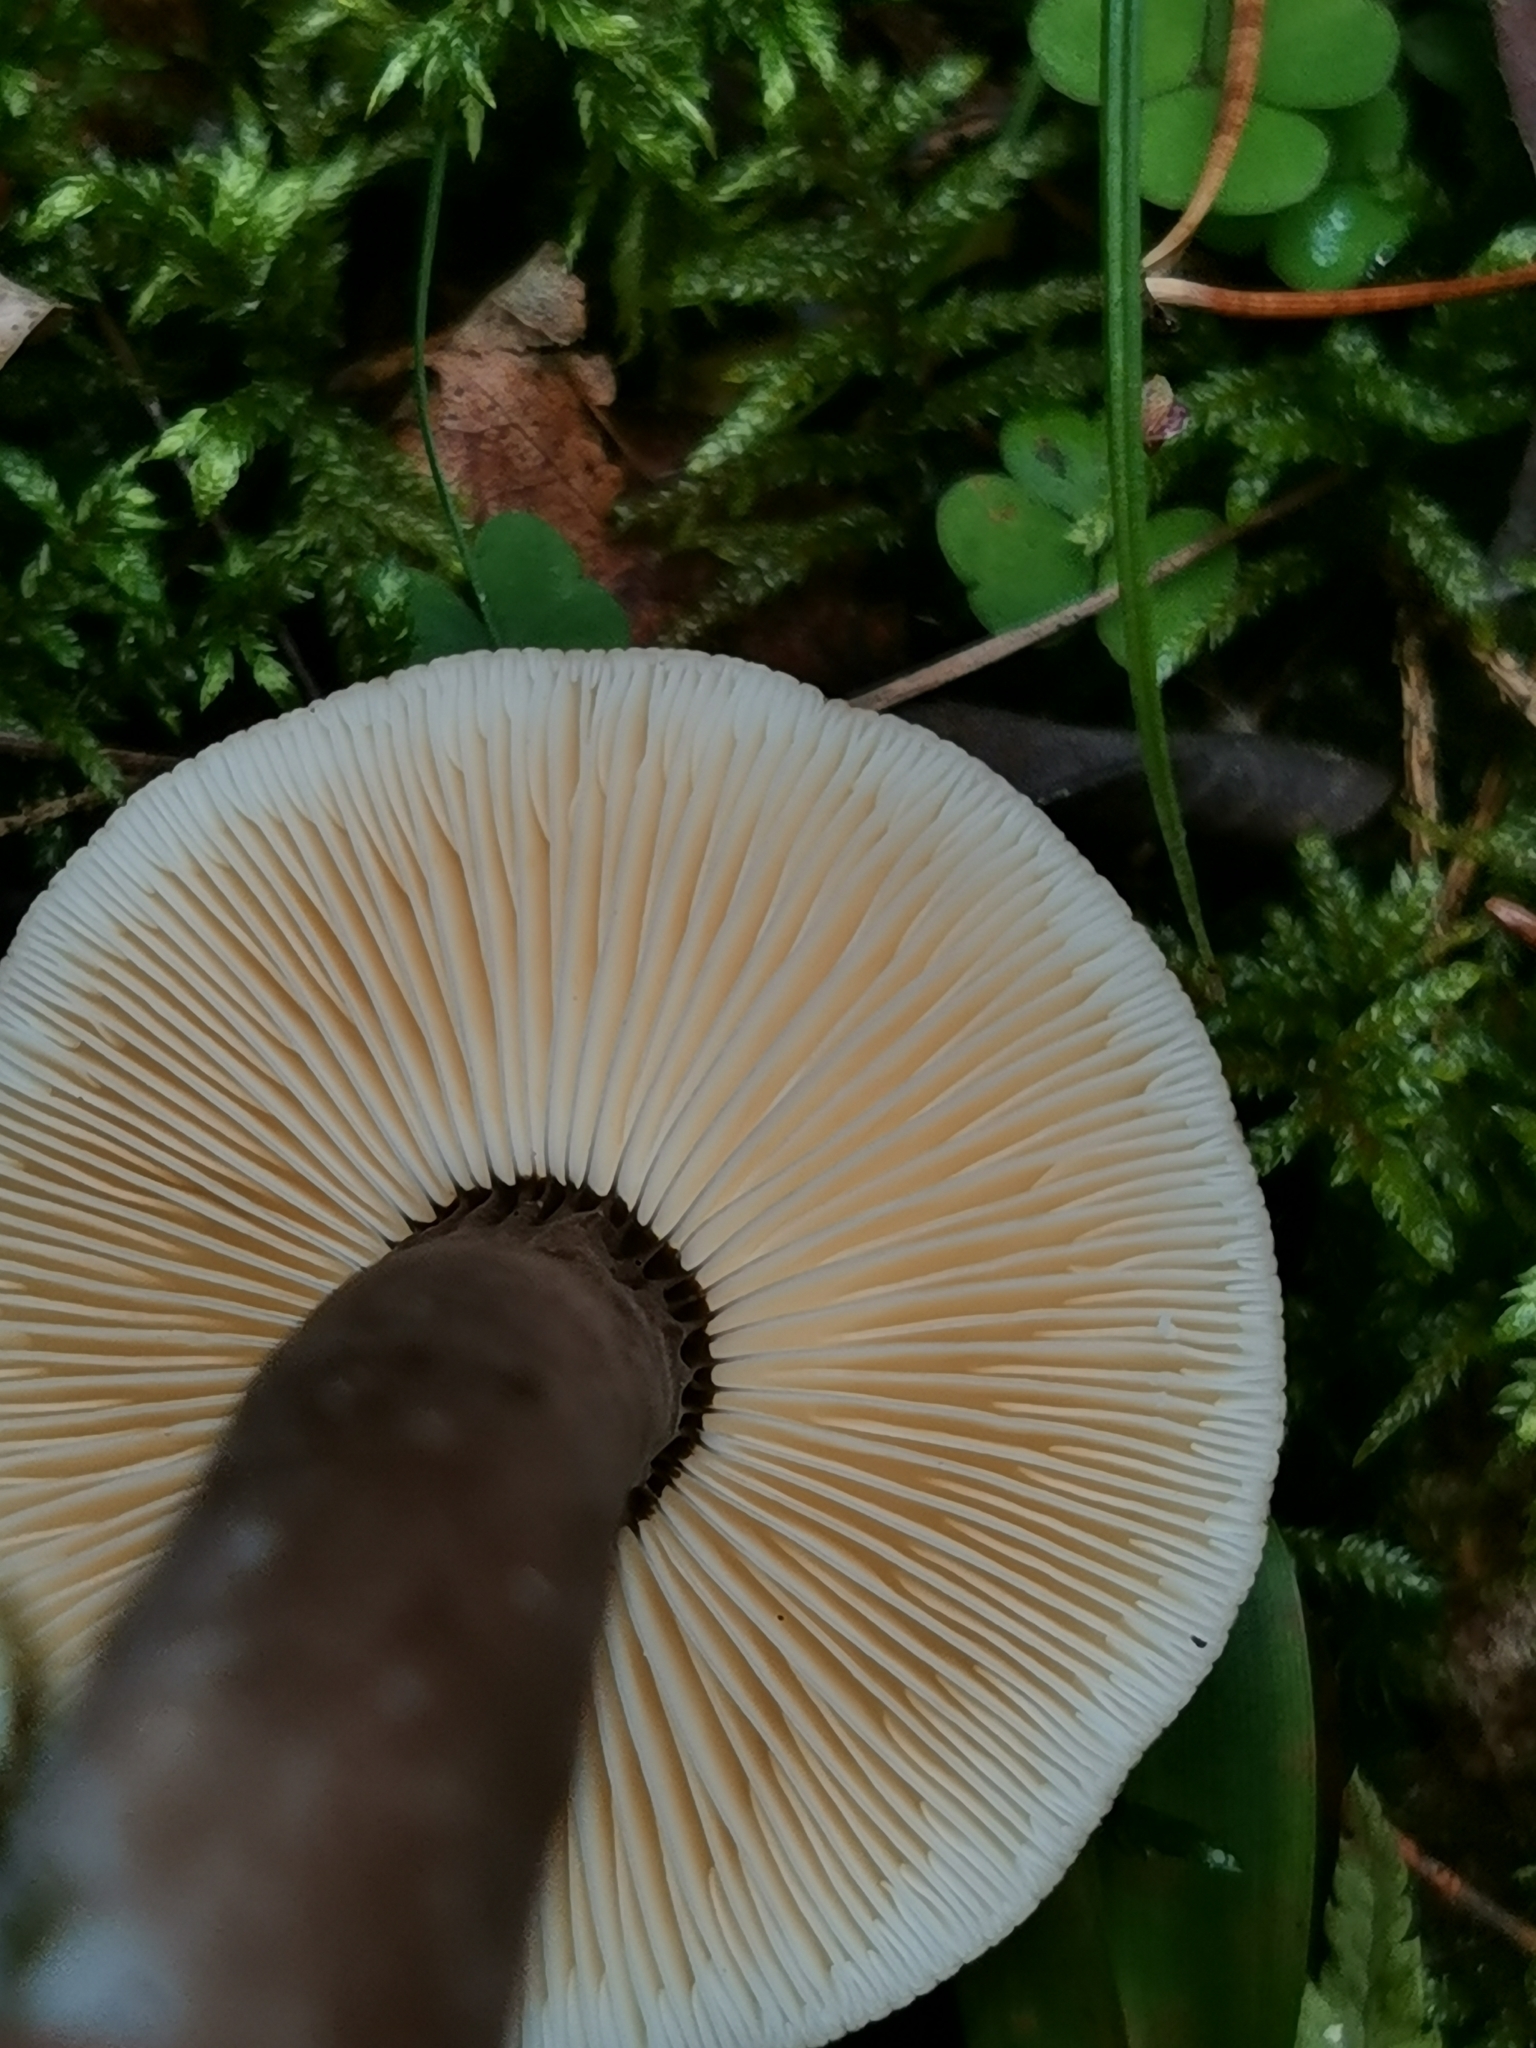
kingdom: Fungi
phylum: Basidiomycota
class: Agaricomycetes
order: Russulales
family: Russulaceae
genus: Lactarius
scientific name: Lactarius lignyotus
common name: Velvet milkcap
